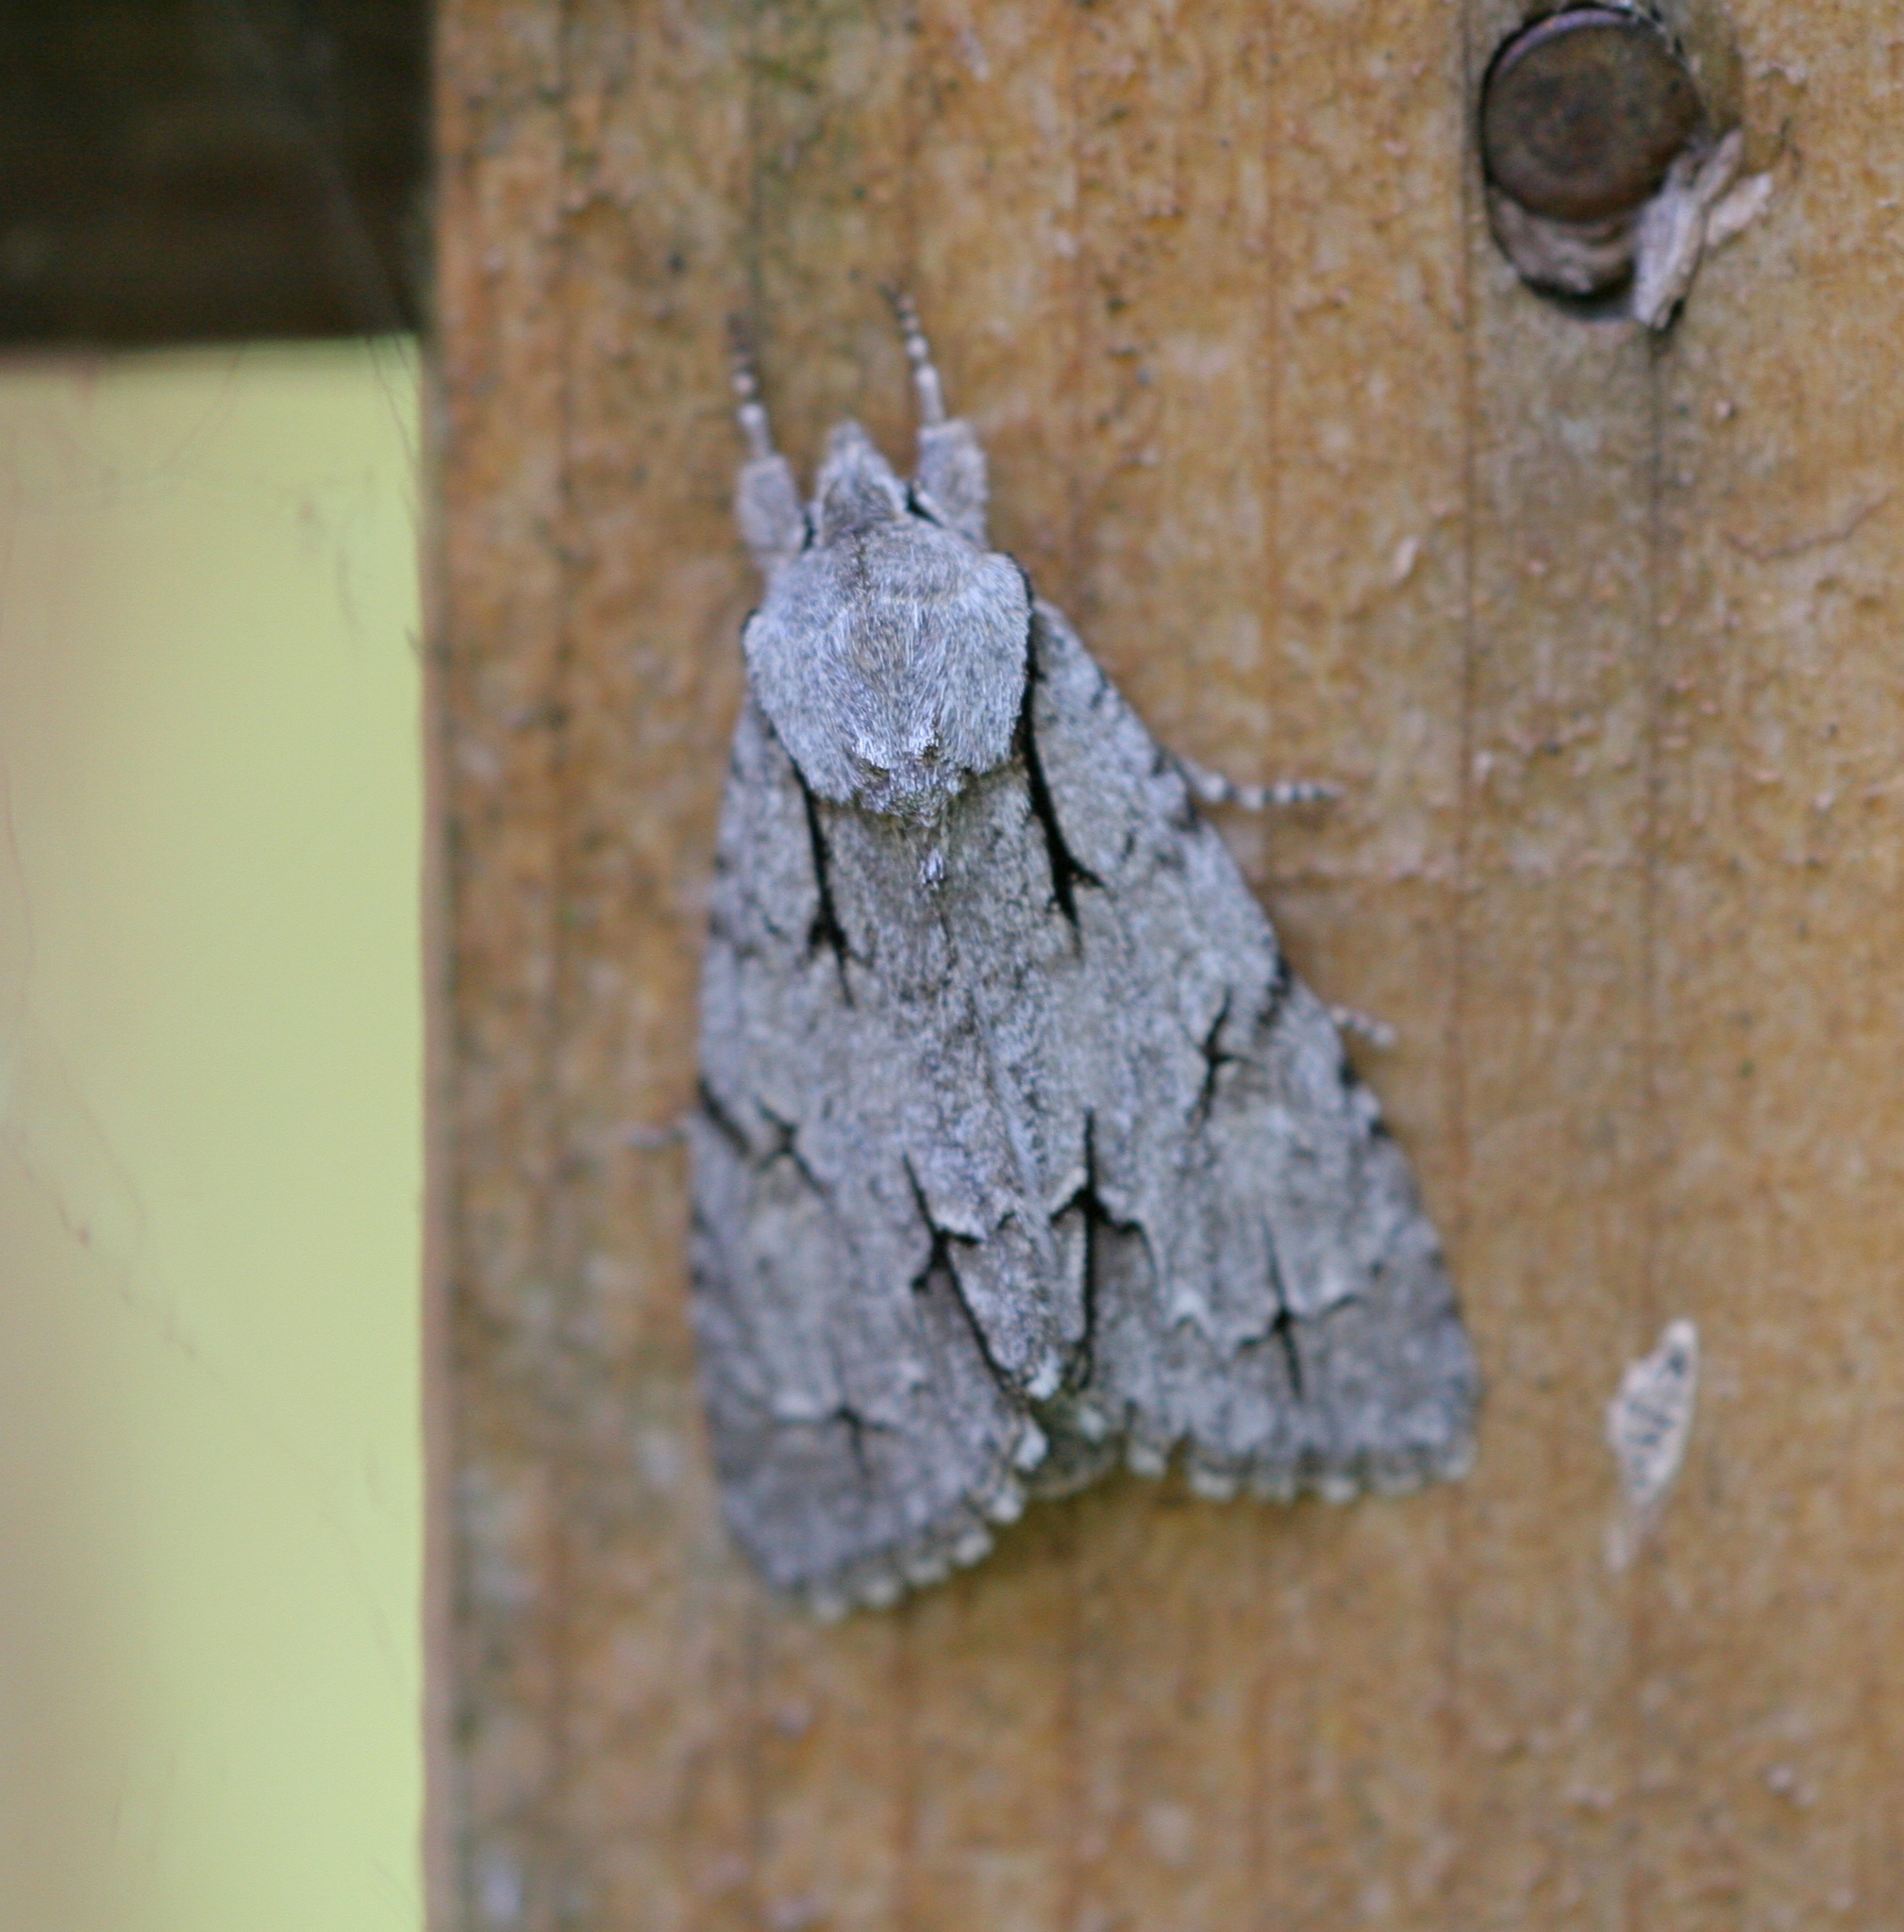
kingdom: Animalia
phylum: Arthropoda
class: Insecta
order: Lepidoptera
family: Noctuidae
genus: Acronicta
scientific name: Acronicta
